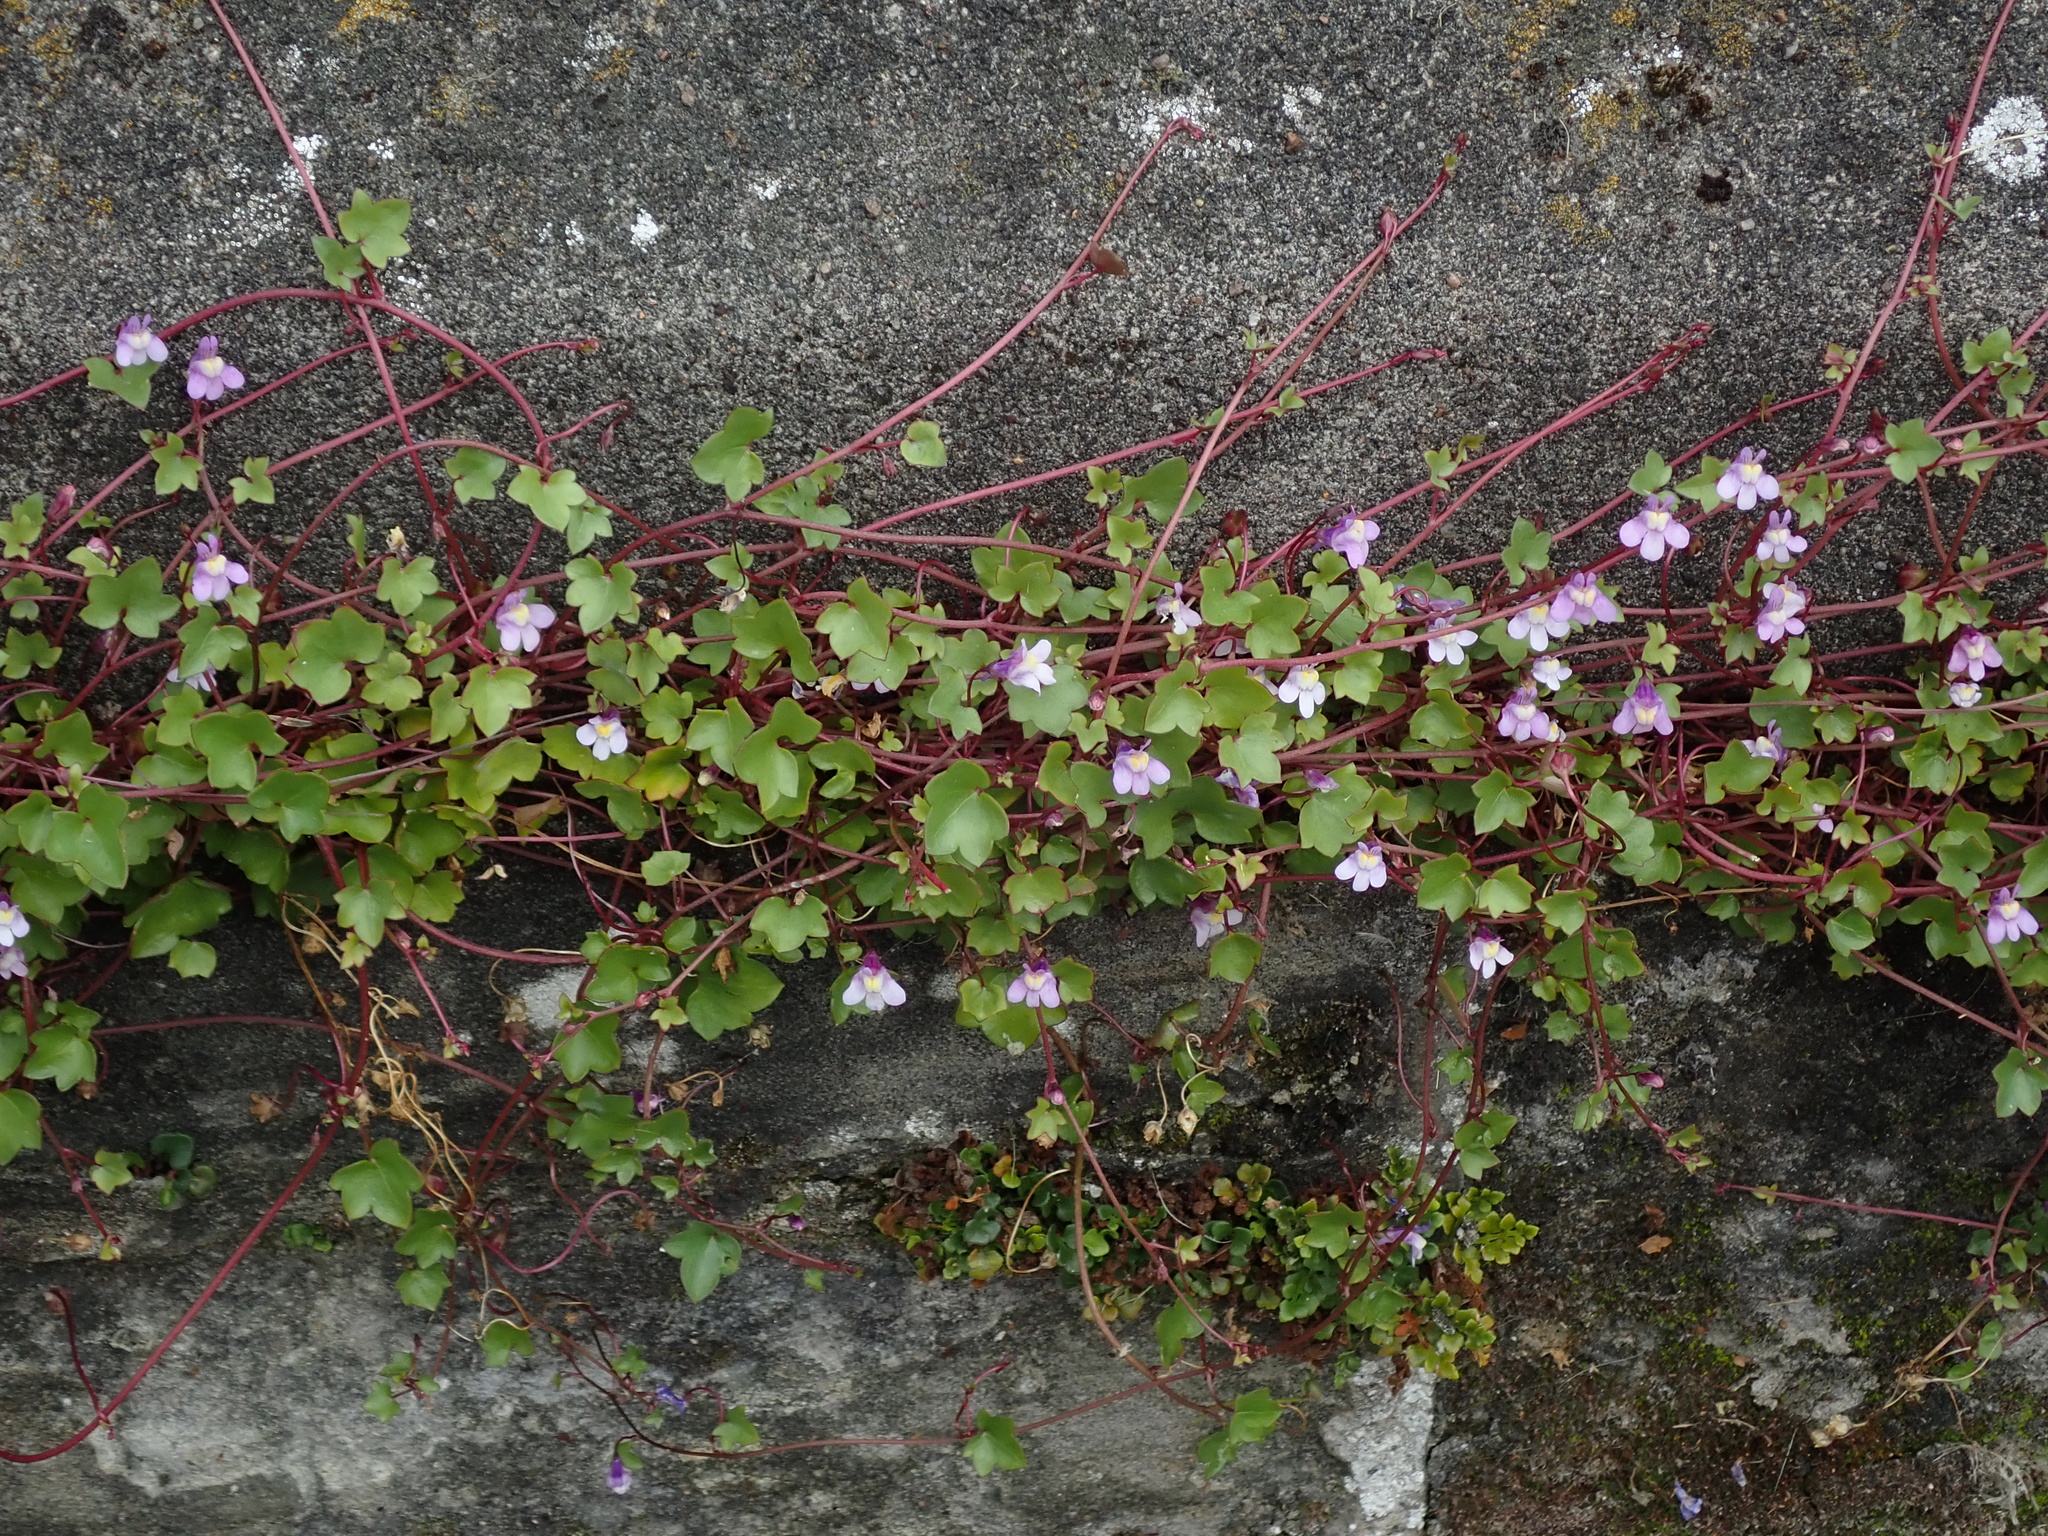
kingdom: Plantae
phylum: Tracheophyta
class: Magnoliopsida
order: Lamiales
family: Plantaginaceae
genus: Cymbalaria
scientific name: Cymbalaria muralis
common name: Ivy-leaved toadflax
